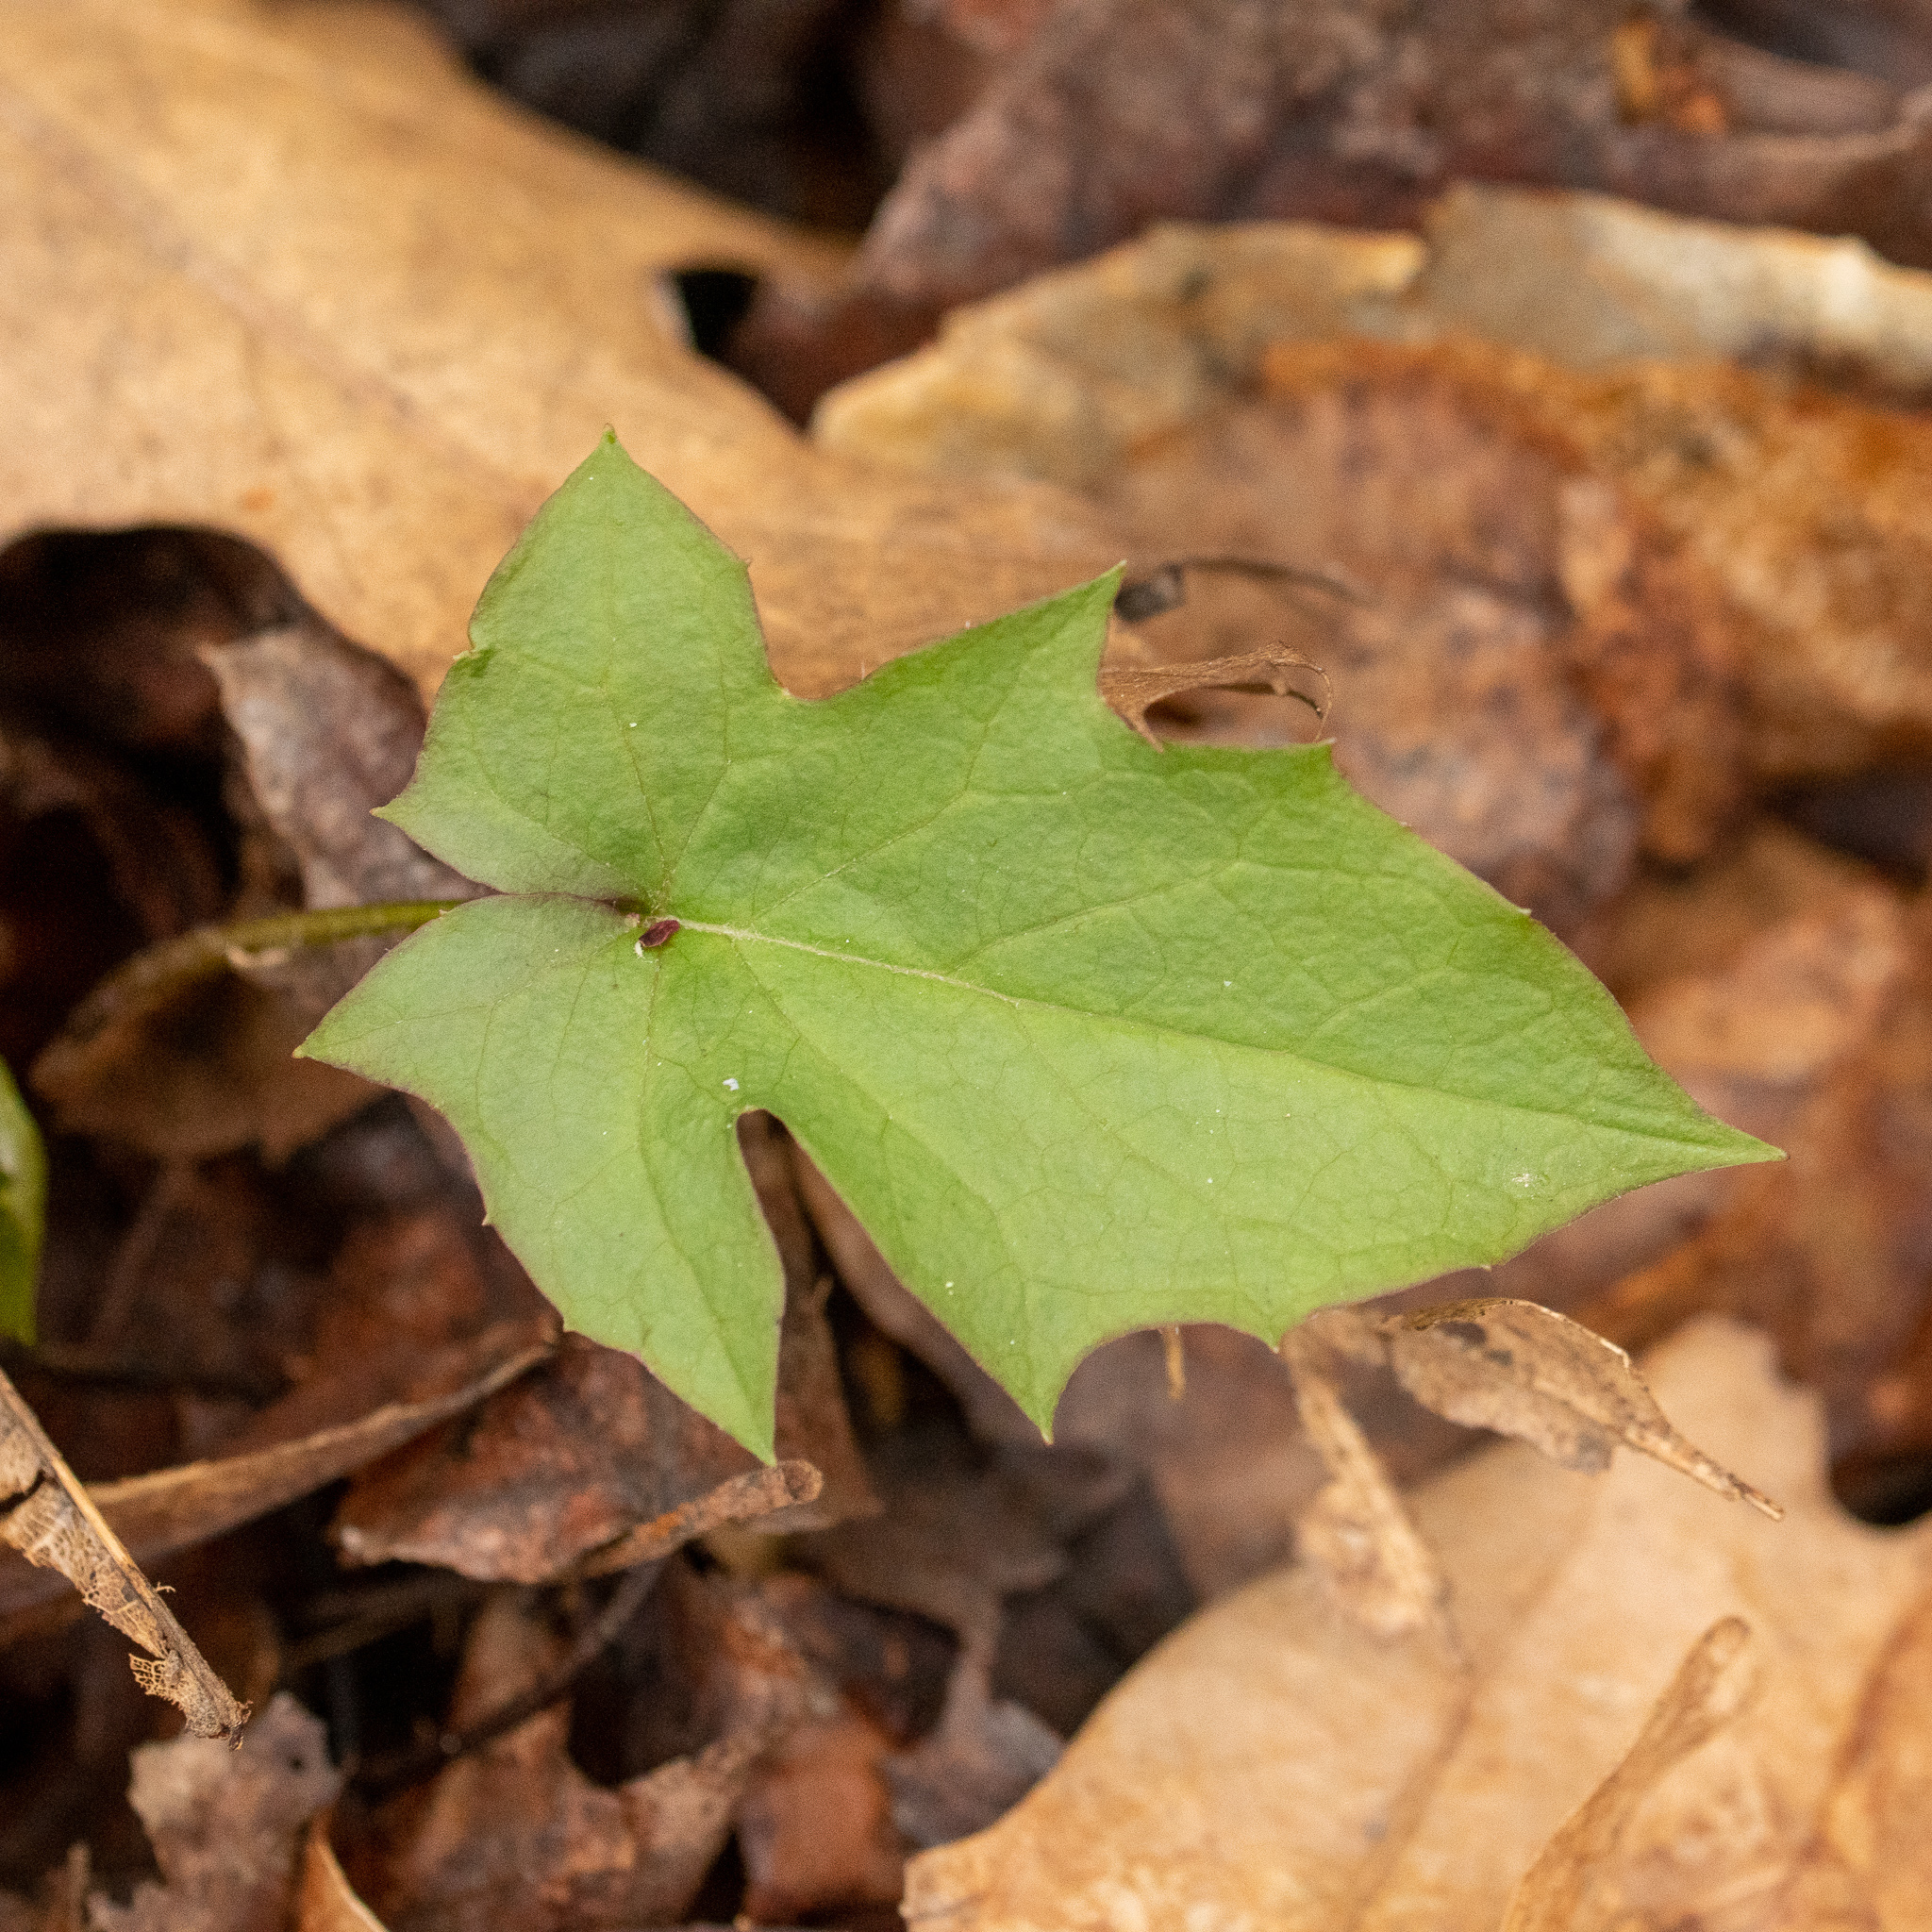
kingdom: Plantae
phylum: Tracheophyta
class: Magnoliopsida
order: Asterales
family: Asteraceae
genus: Nabalus
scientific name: Nabalus albus
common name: White rattlesnakeroot
